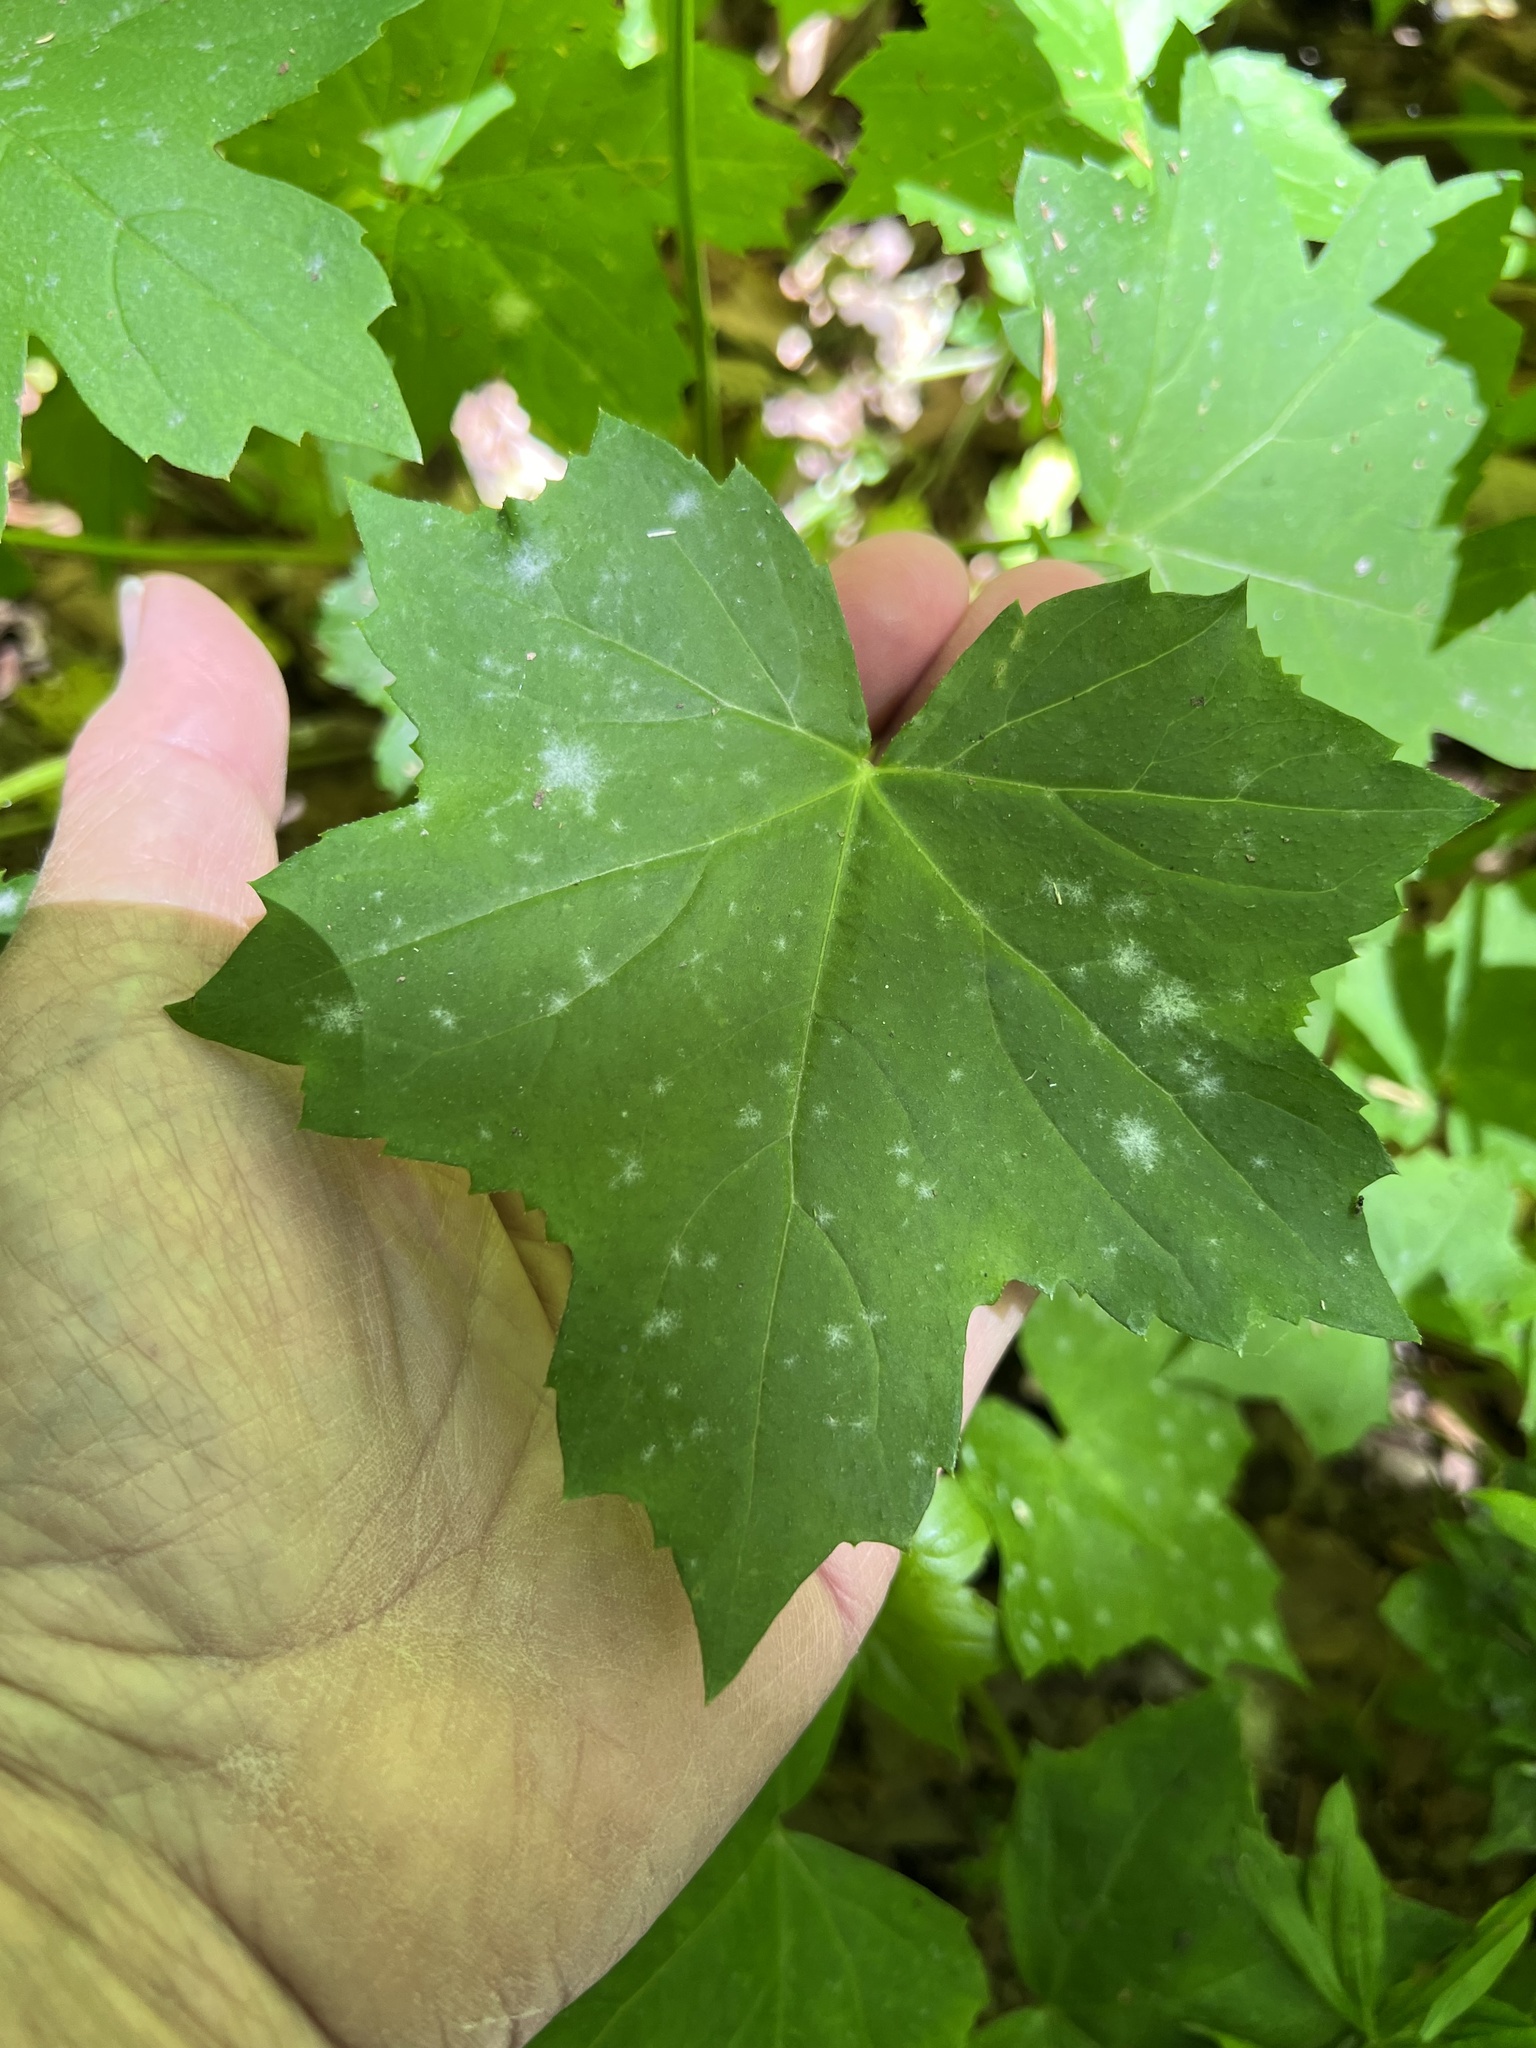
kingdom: Fungi
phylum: Ascomycota
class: Leotiomycetes
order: Helotiales
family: Erysiphaceae
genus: Golovinomyces
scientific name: Golovinomyces hydrophyllacearum
